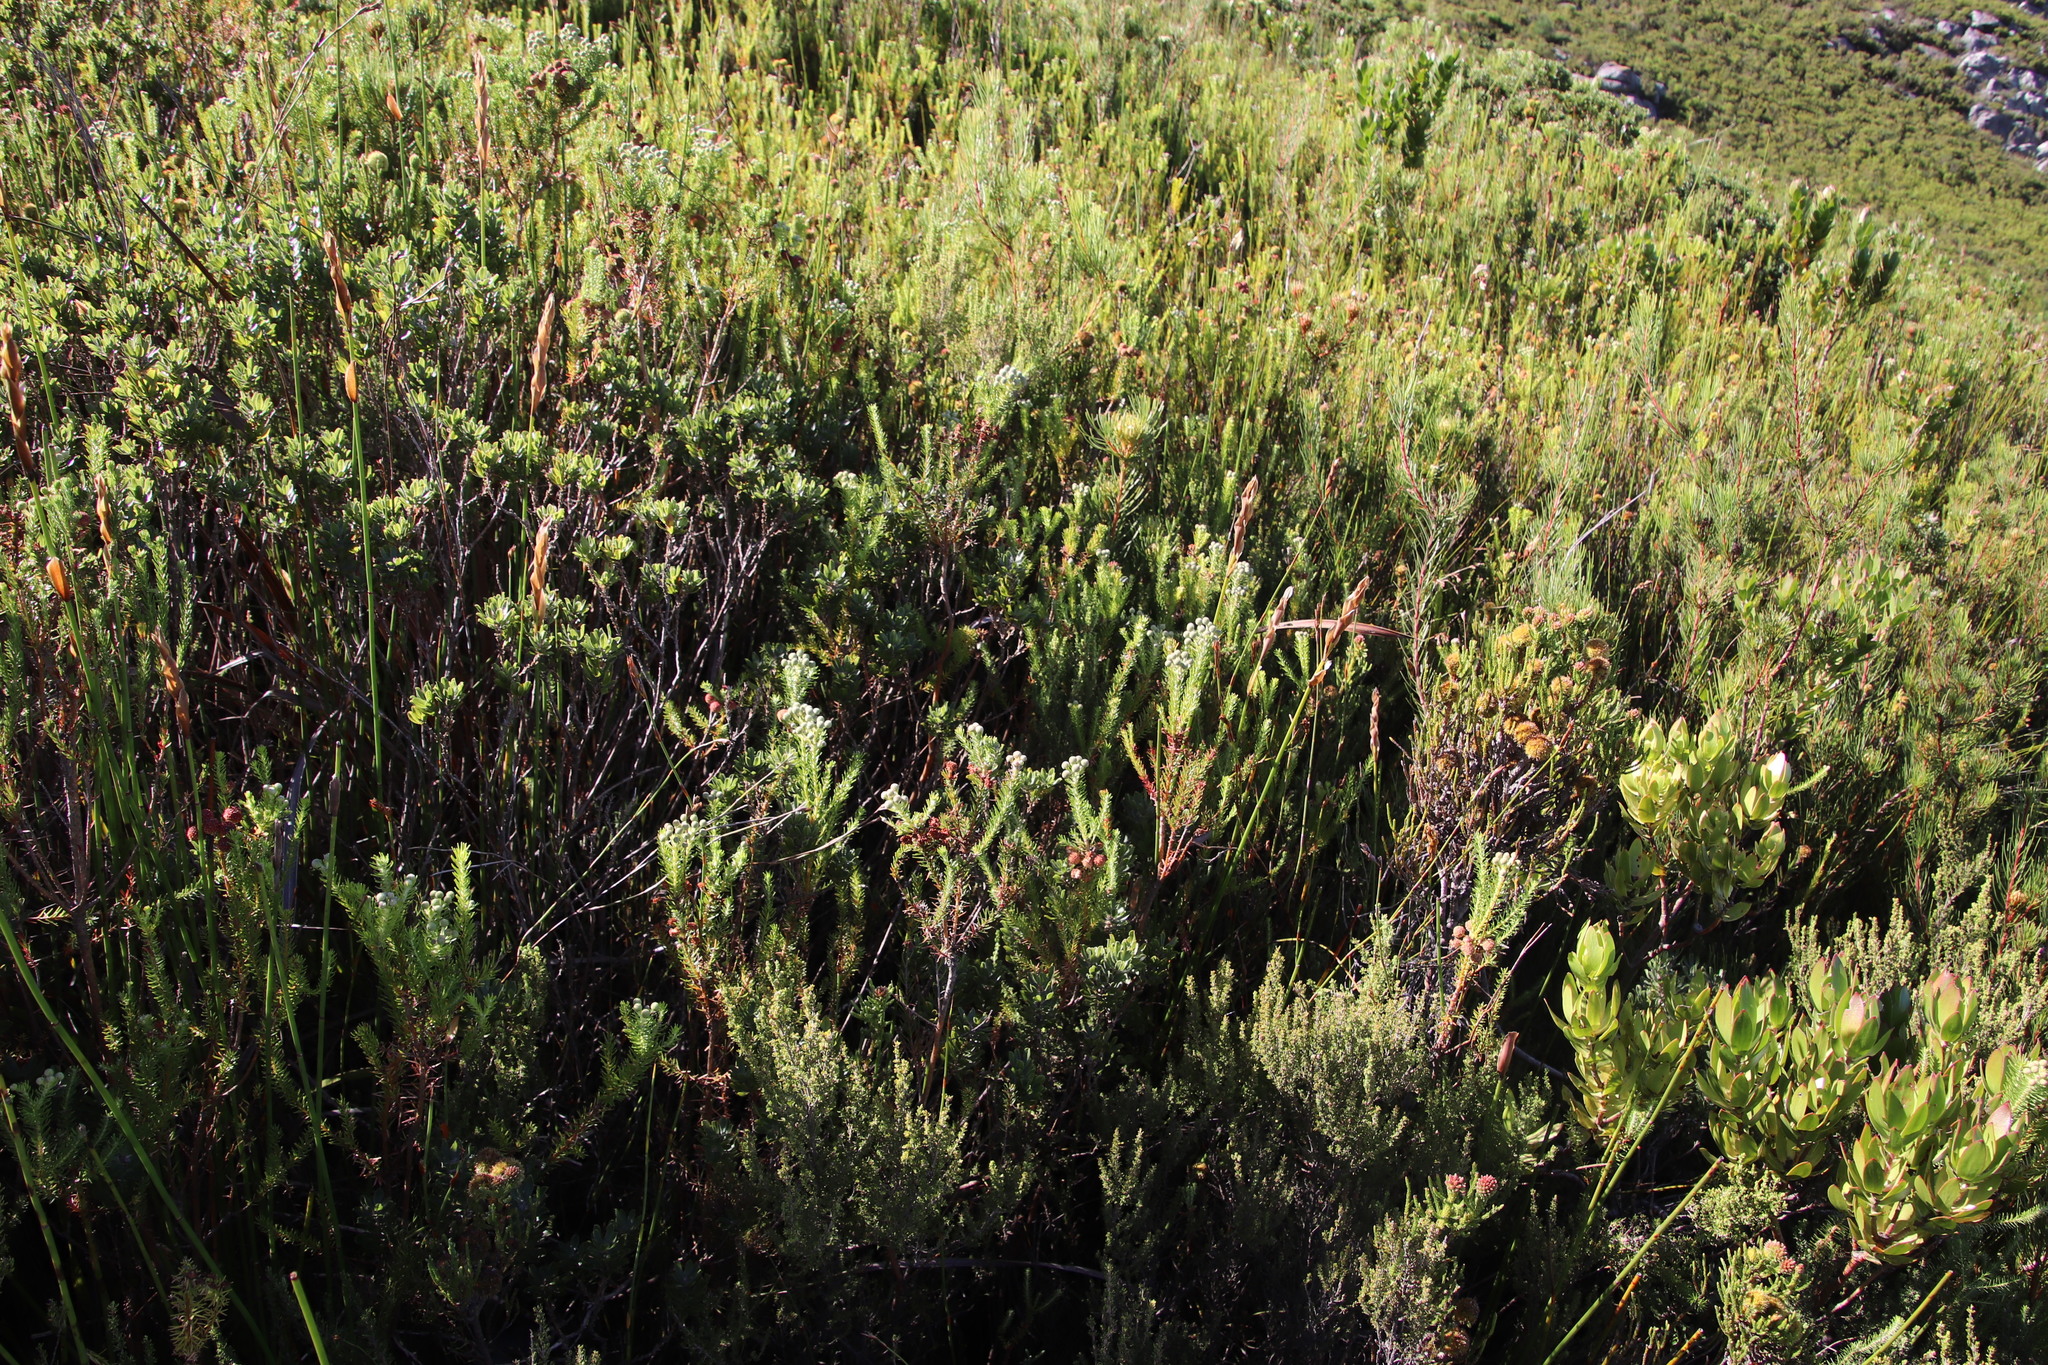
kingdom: Plantae
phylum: Tracheophyta
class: Magnoliopsida
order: Bruniales
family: Bruniaceae
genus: Berzelia
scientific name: Berzelia intermedia
